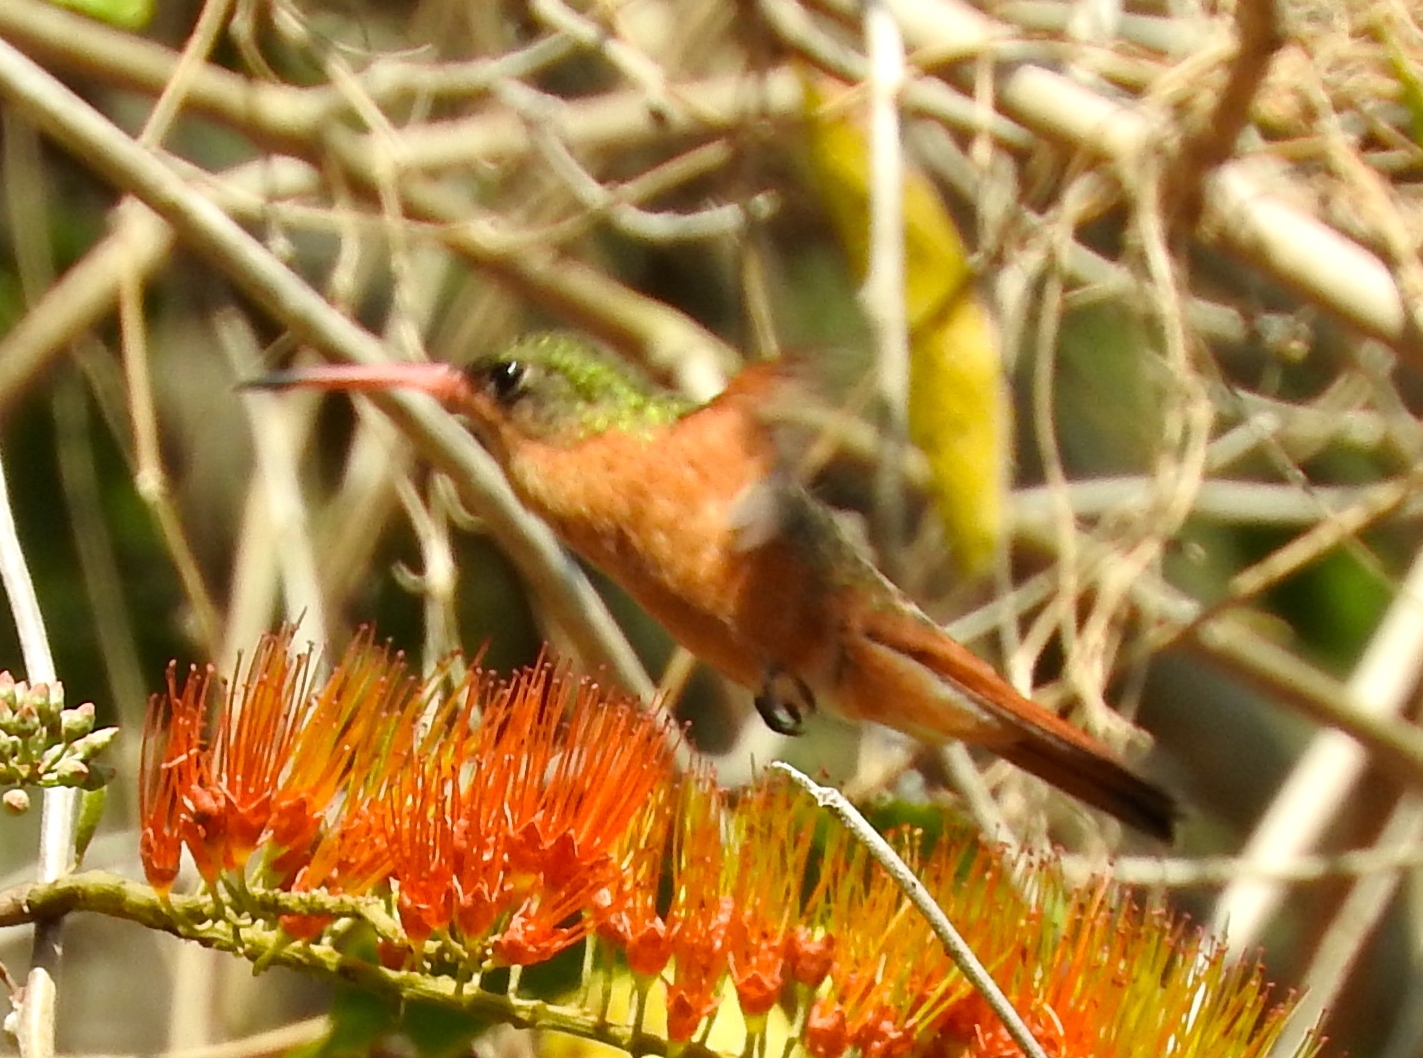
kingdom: Animalia
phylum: Chordata
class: Aves
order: Apodiformes
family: Trochilidae
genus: Amazilia
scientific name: Amazilia rutila
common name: Cinnamon hummingbird
